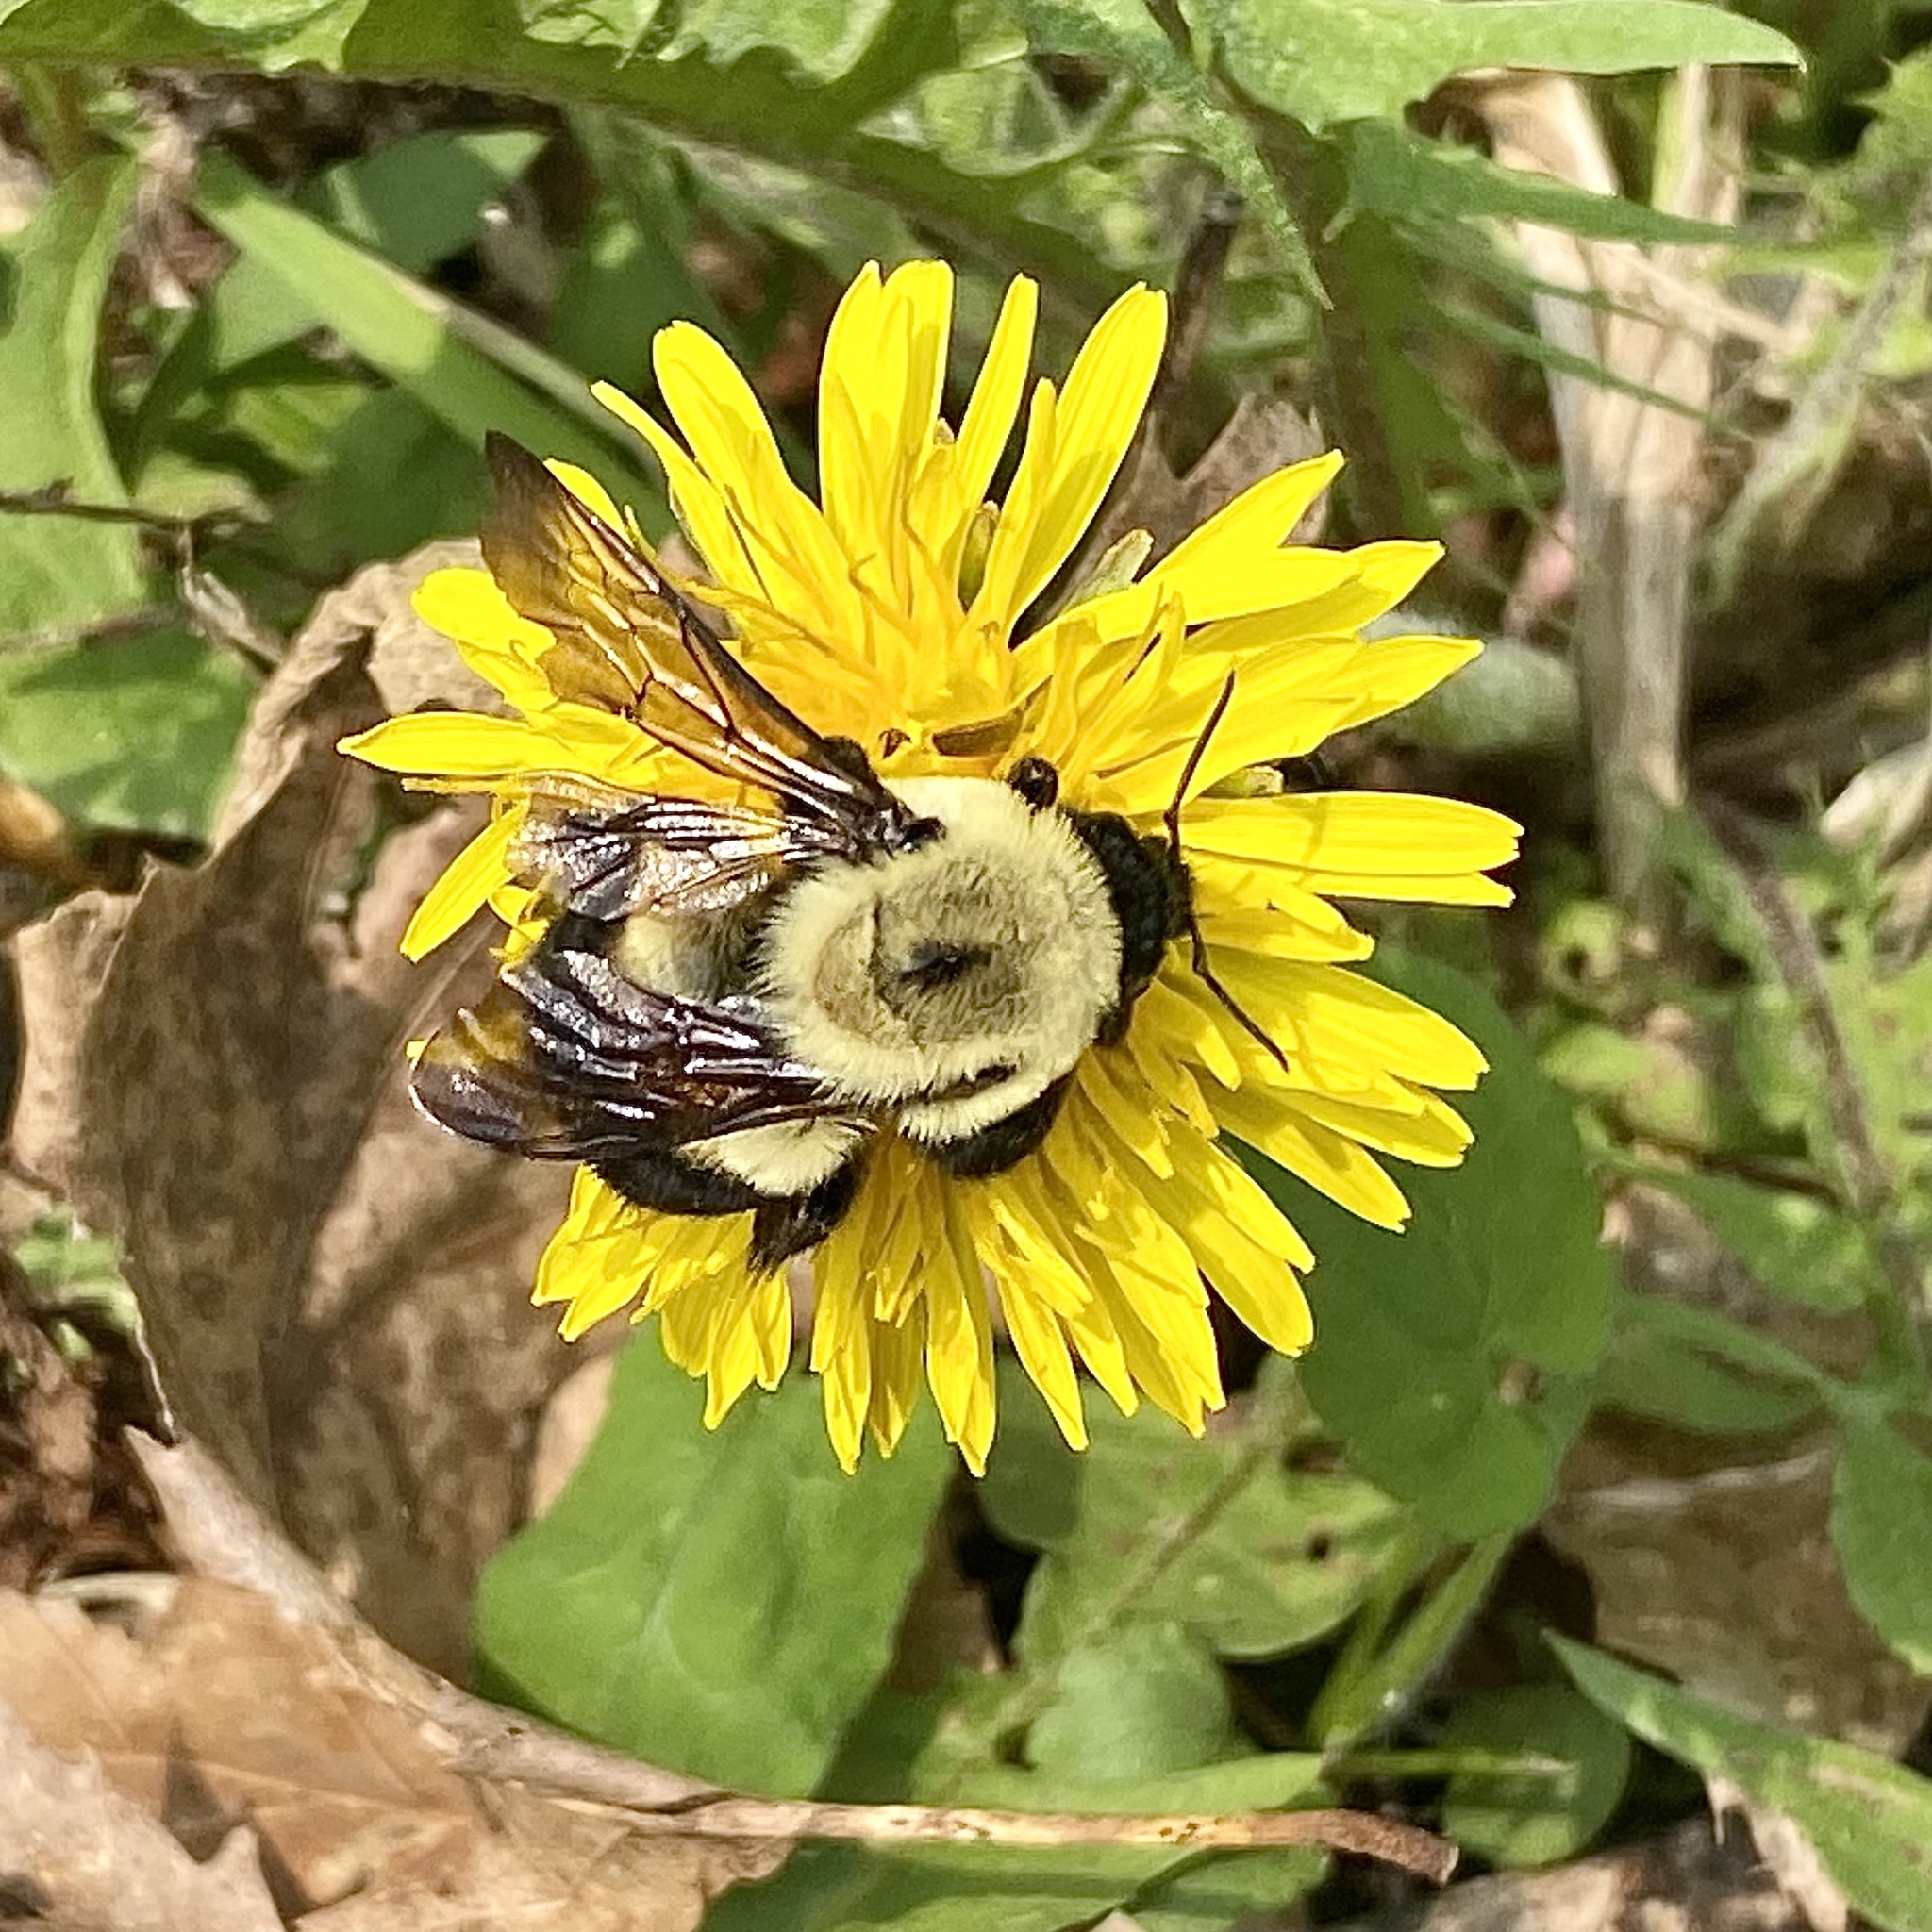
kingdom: Animalia
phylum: Arthropoda
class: Insecta
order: Hymenoptera
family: Apidae
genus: Bombus
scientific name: Bombus griseocollis
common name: Brown-belted bumble bee
